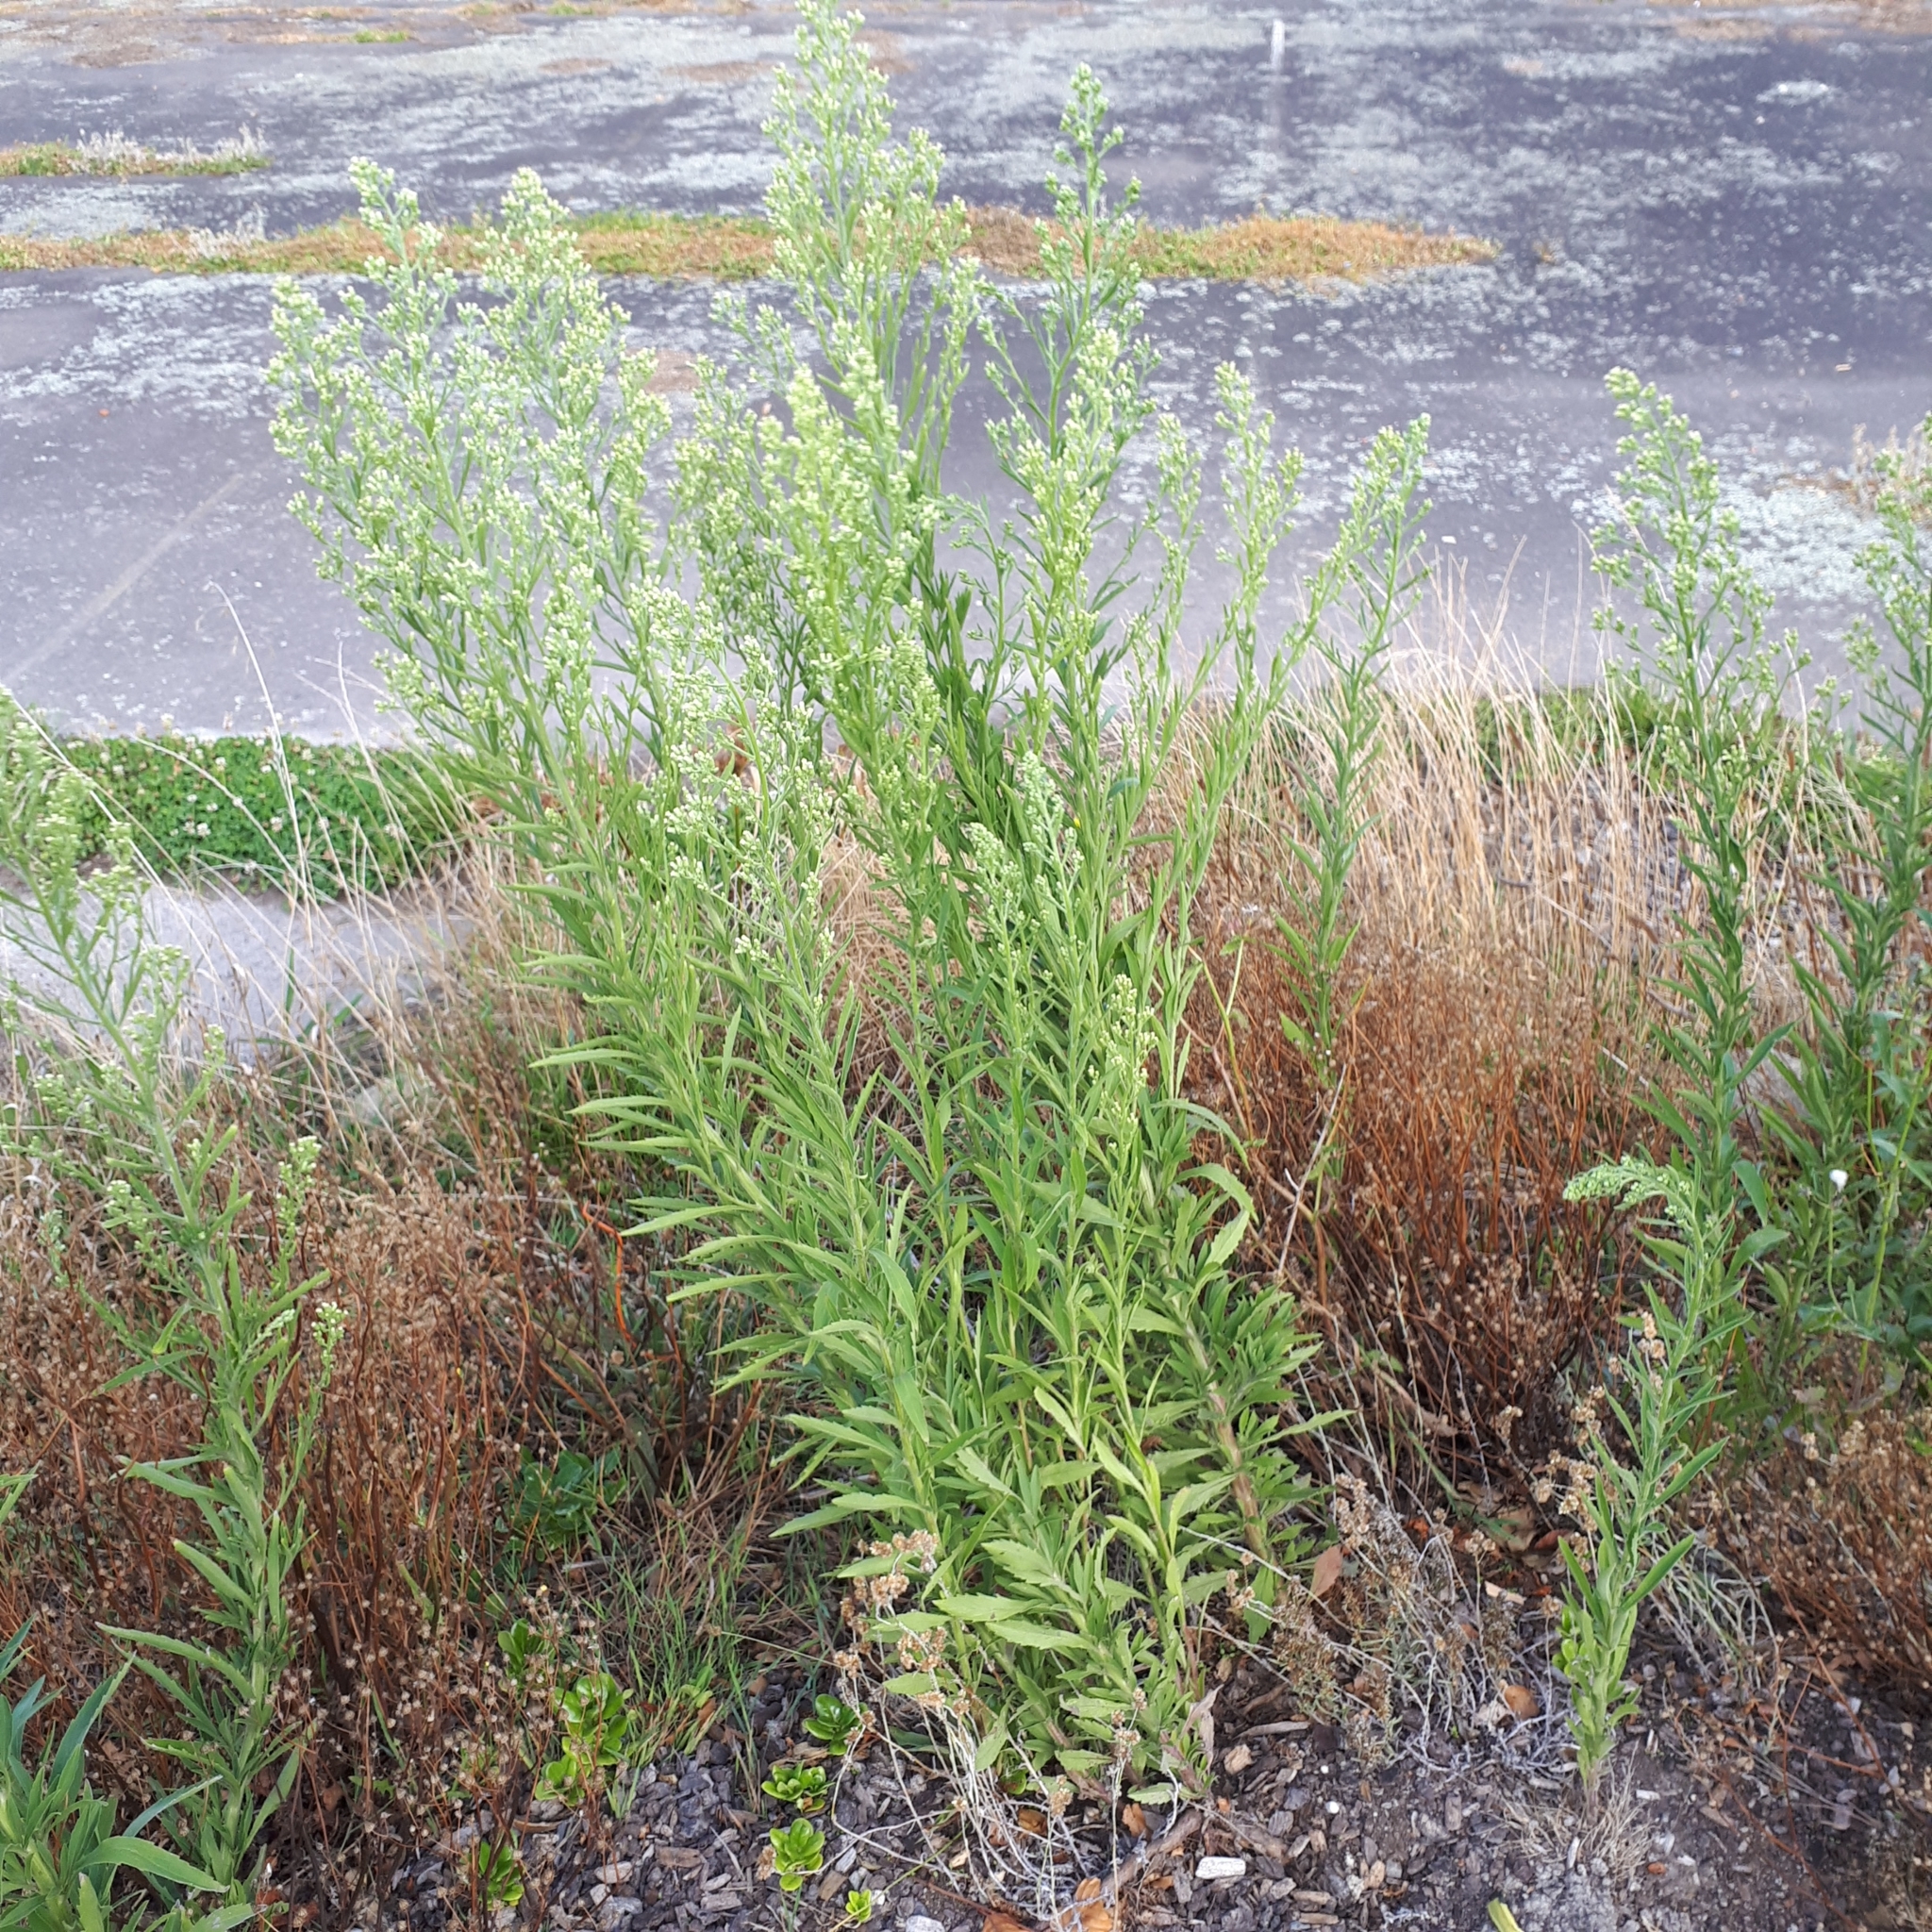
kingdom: Plantae
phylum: Tracheophyta
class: Magnoliopsida
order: Asterales
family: Asteraceae
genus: Erigeron
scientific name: Erigeron sumatrensis
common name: Daisy
